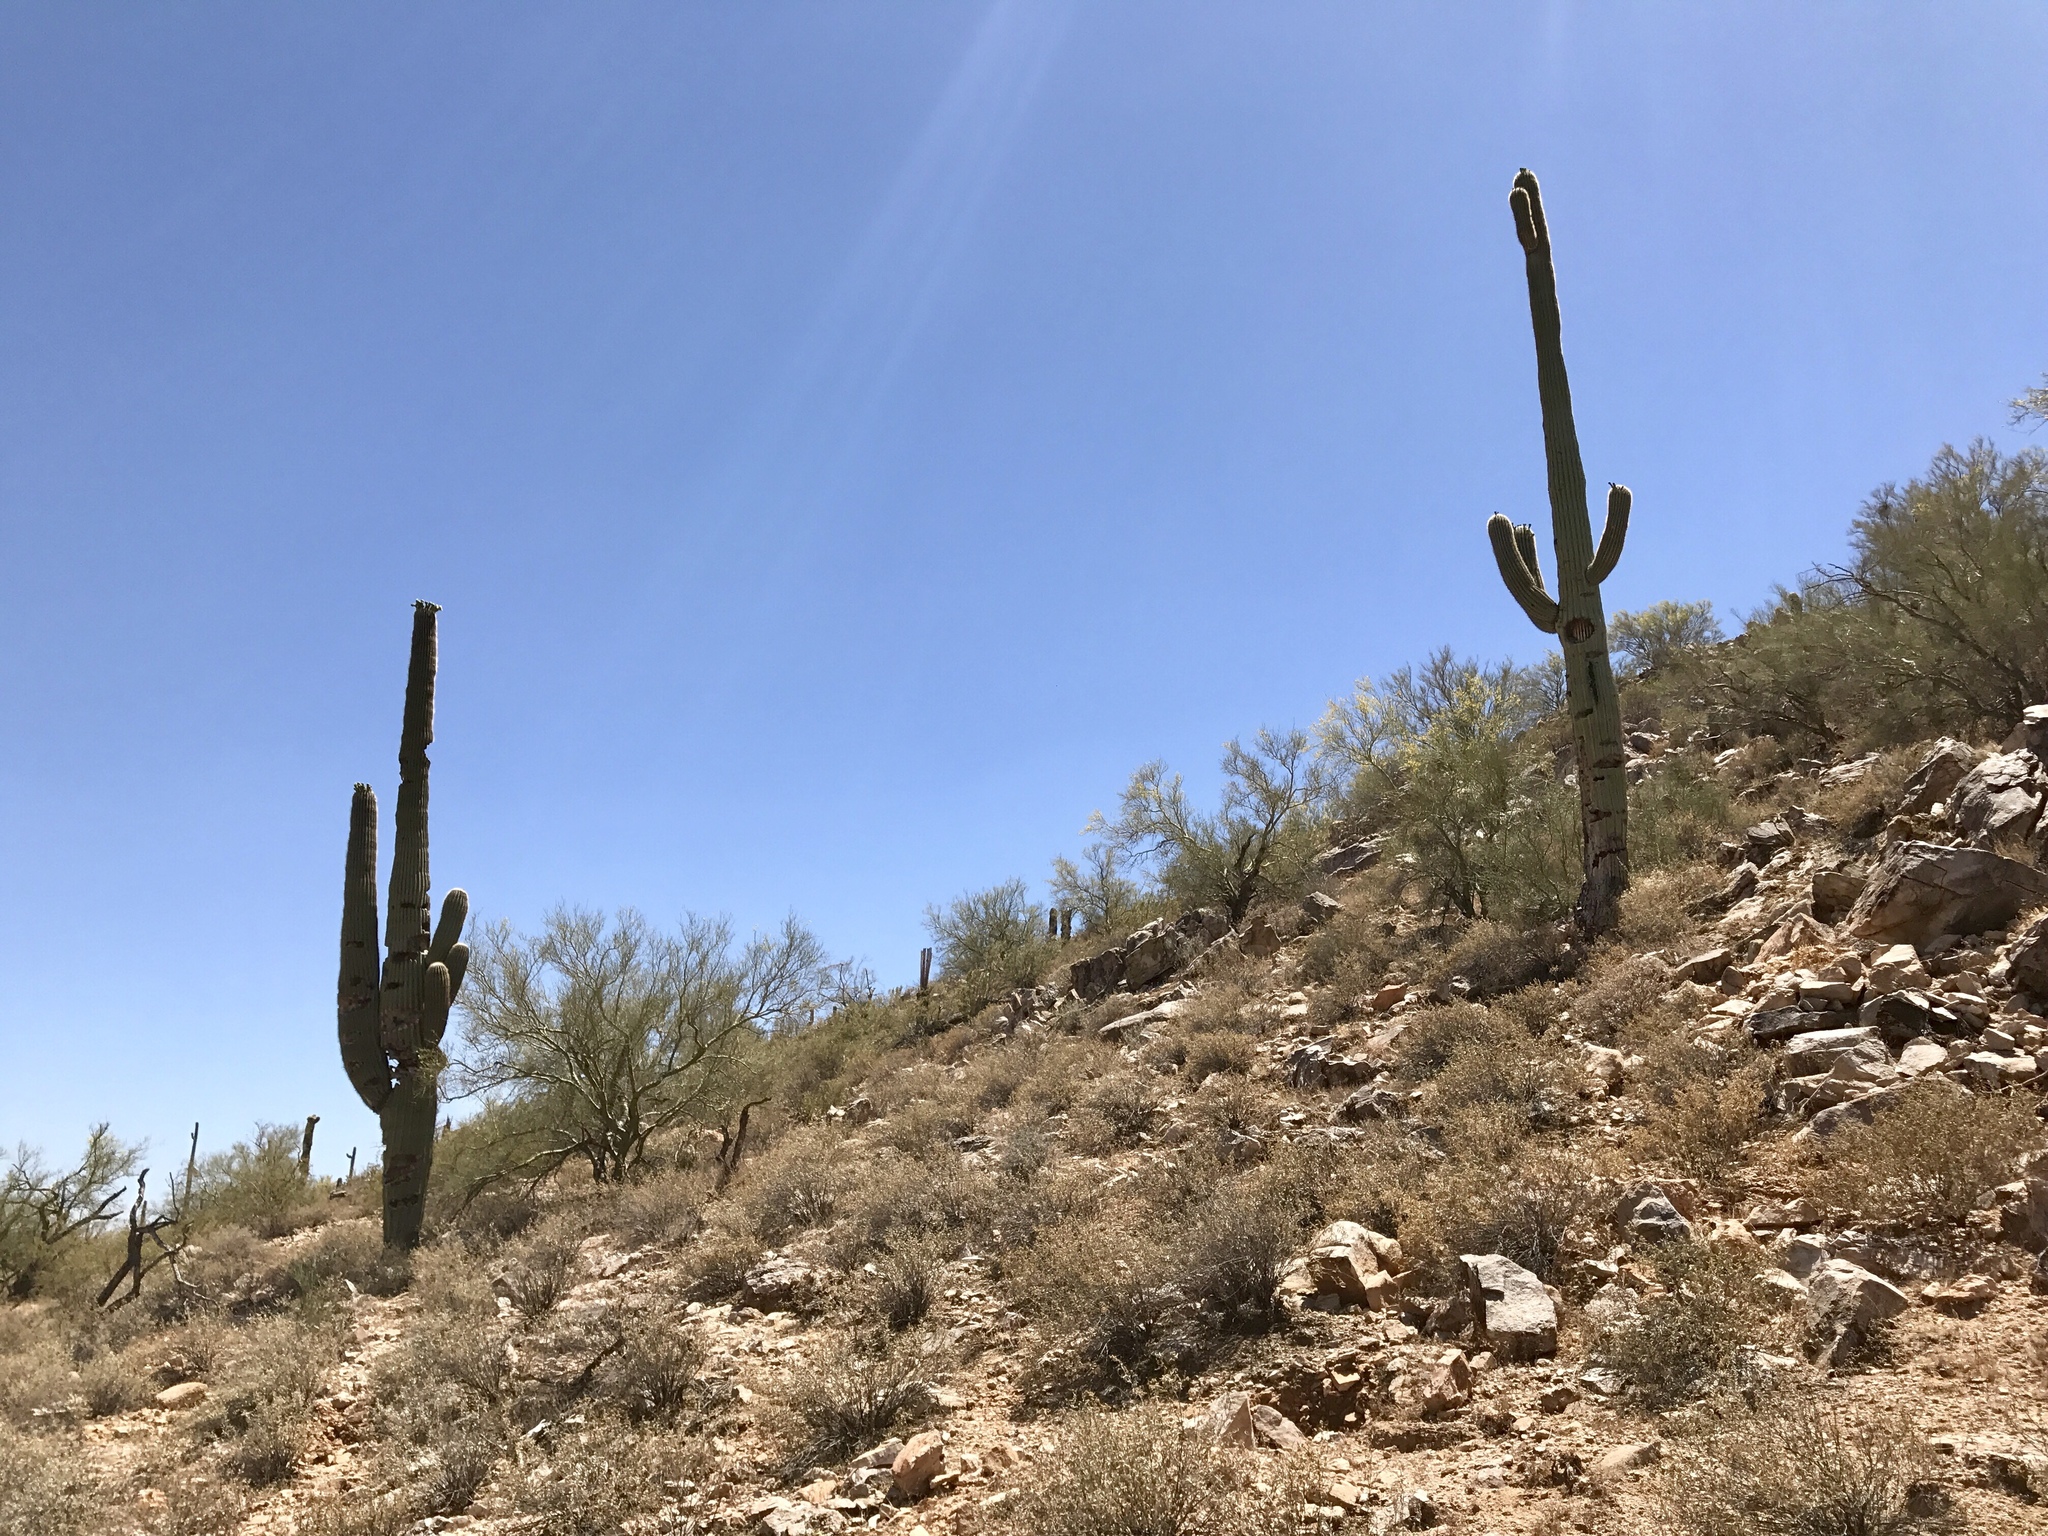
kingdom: Plantae
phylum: Tracheophyta
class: Magnoliopsida
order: Caryophyllales
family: Cactaceae
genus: Carnegiea
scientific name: Carnegiea gigantea
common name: Saguaro
